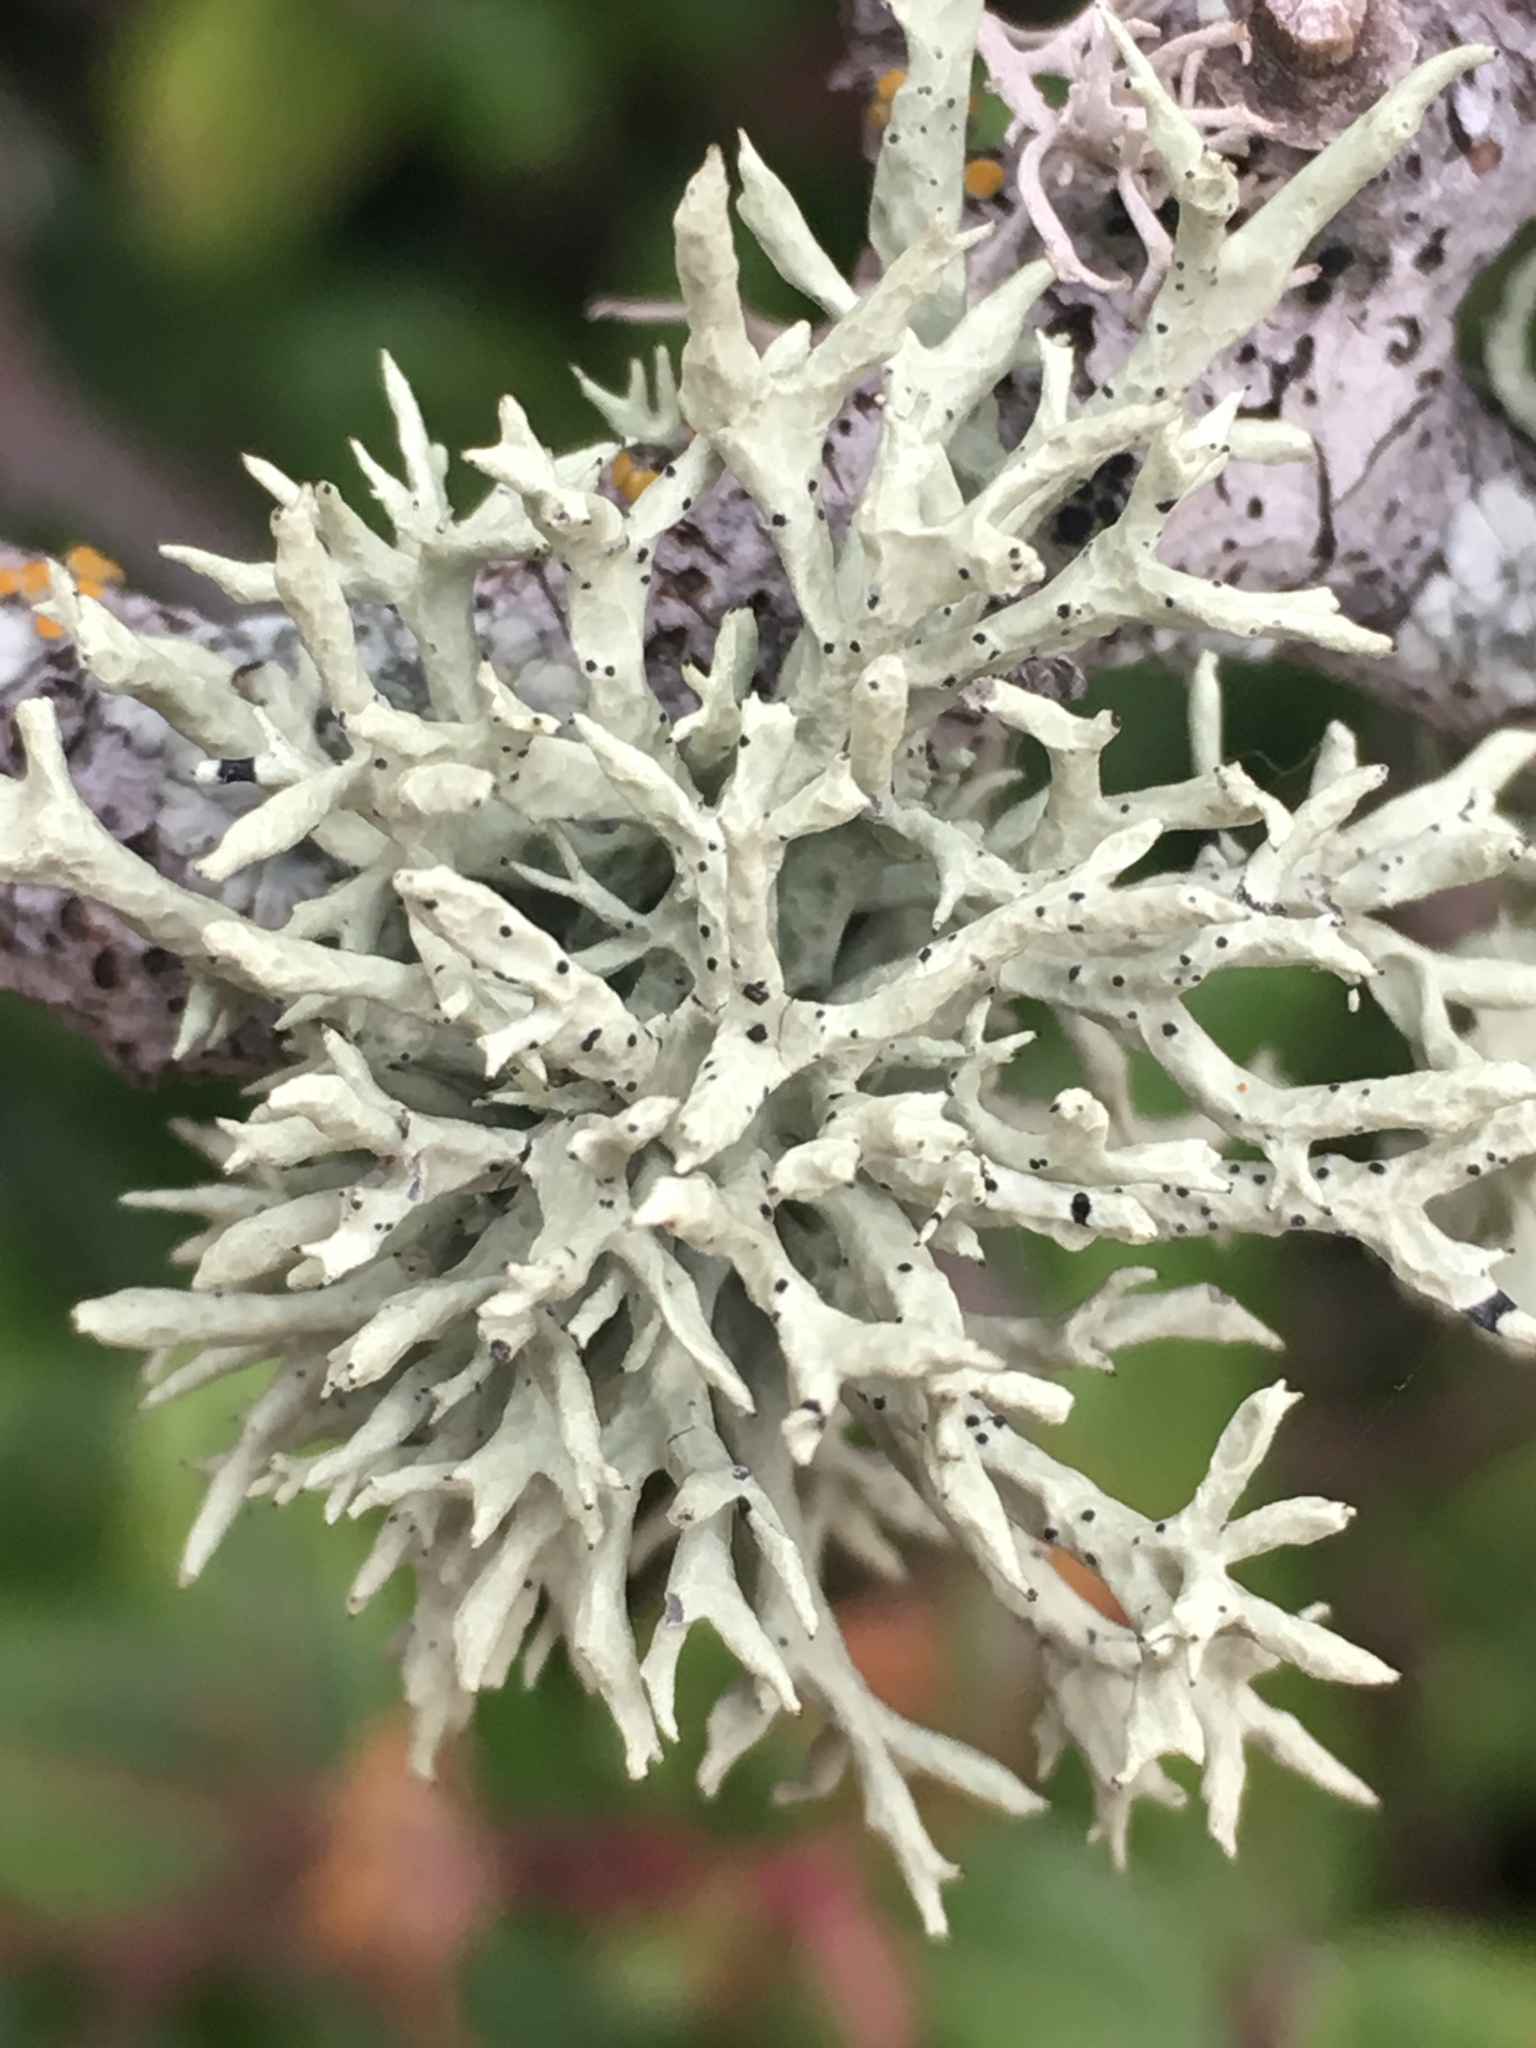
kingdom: Fungi
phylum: Ascomycota
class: Lecanoromycetes
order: Lecanorales
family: Ramalinaceae
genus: Niebla
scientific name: Niebla ceruchis
